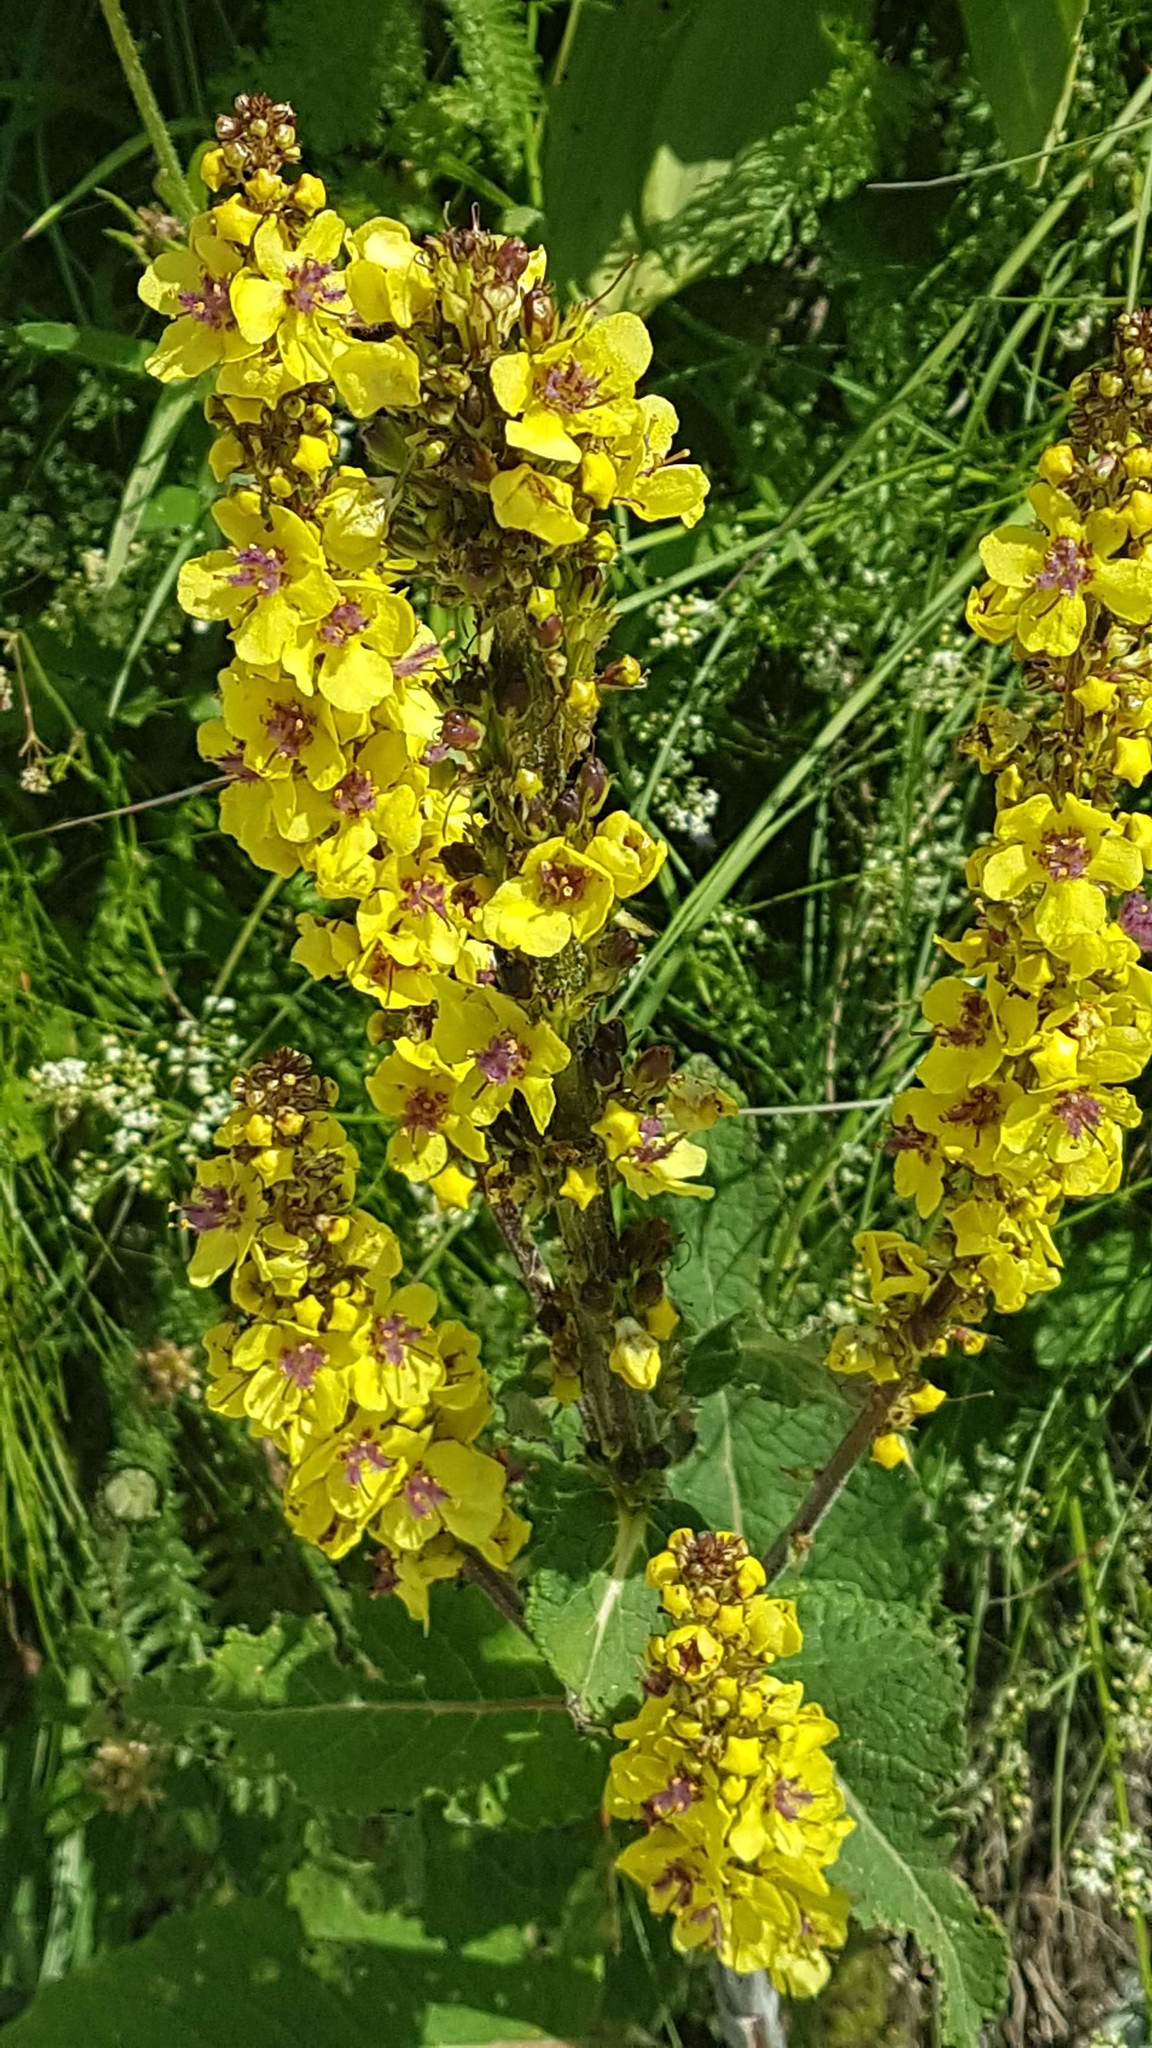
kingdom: Plantae
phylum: Tracheophyta
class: Magnoliopsida
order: Lamiales
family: Scrophulariaceae
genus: Verbascum
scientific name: Verbascum nigrum
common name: Dark mullein
